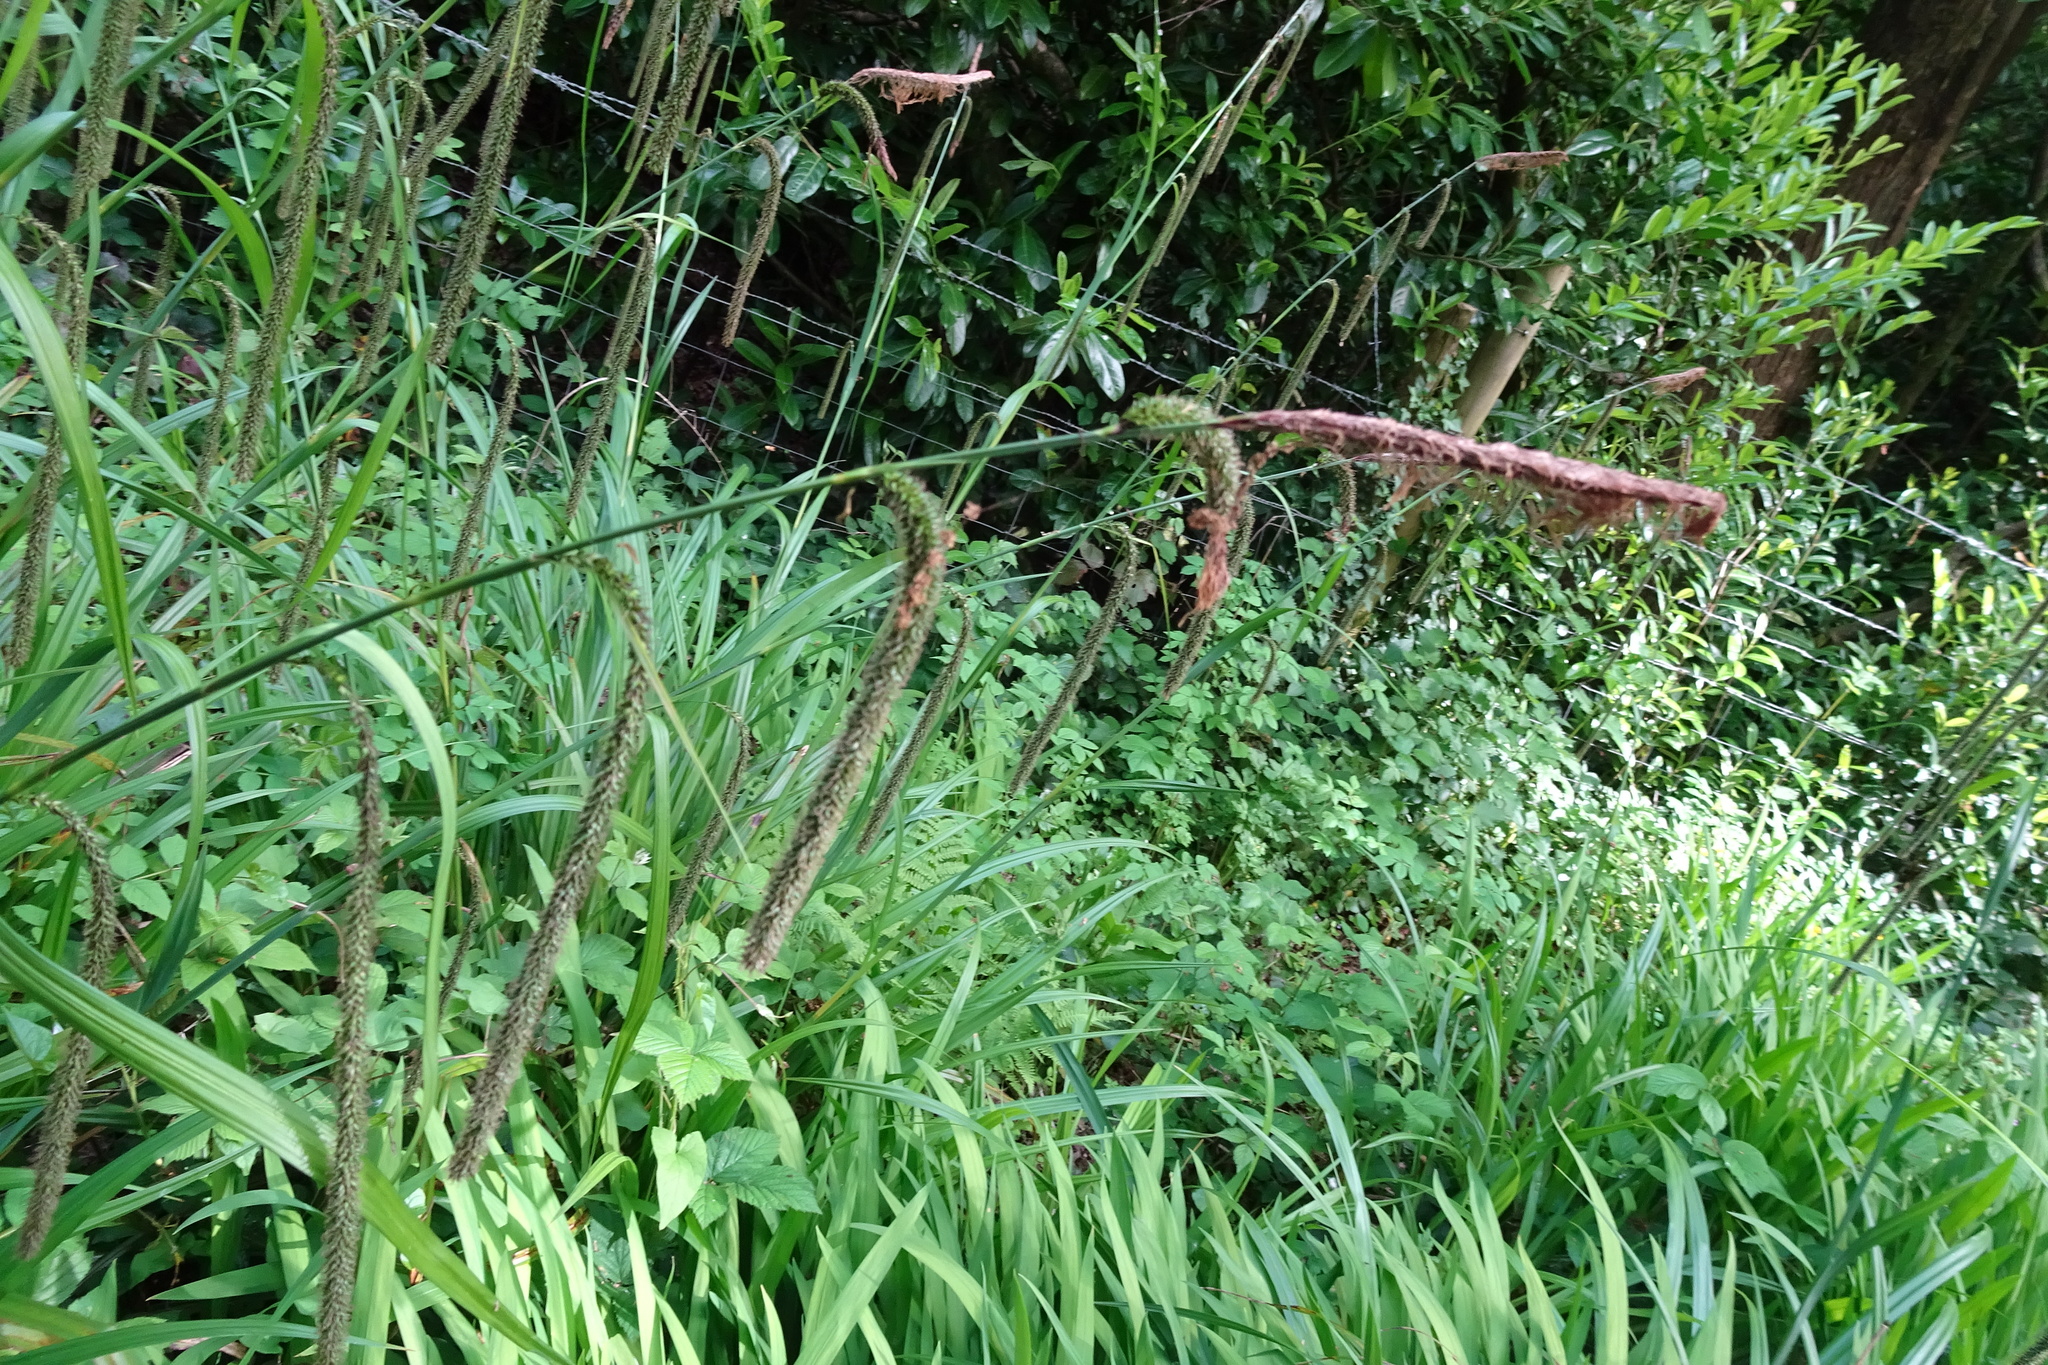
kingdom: Plantae
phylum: Tracheophyta
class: Liliopsida
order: Poales
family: Cyperaceae
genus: Carex
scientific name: Carex pendula
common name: Pendulous sedge
